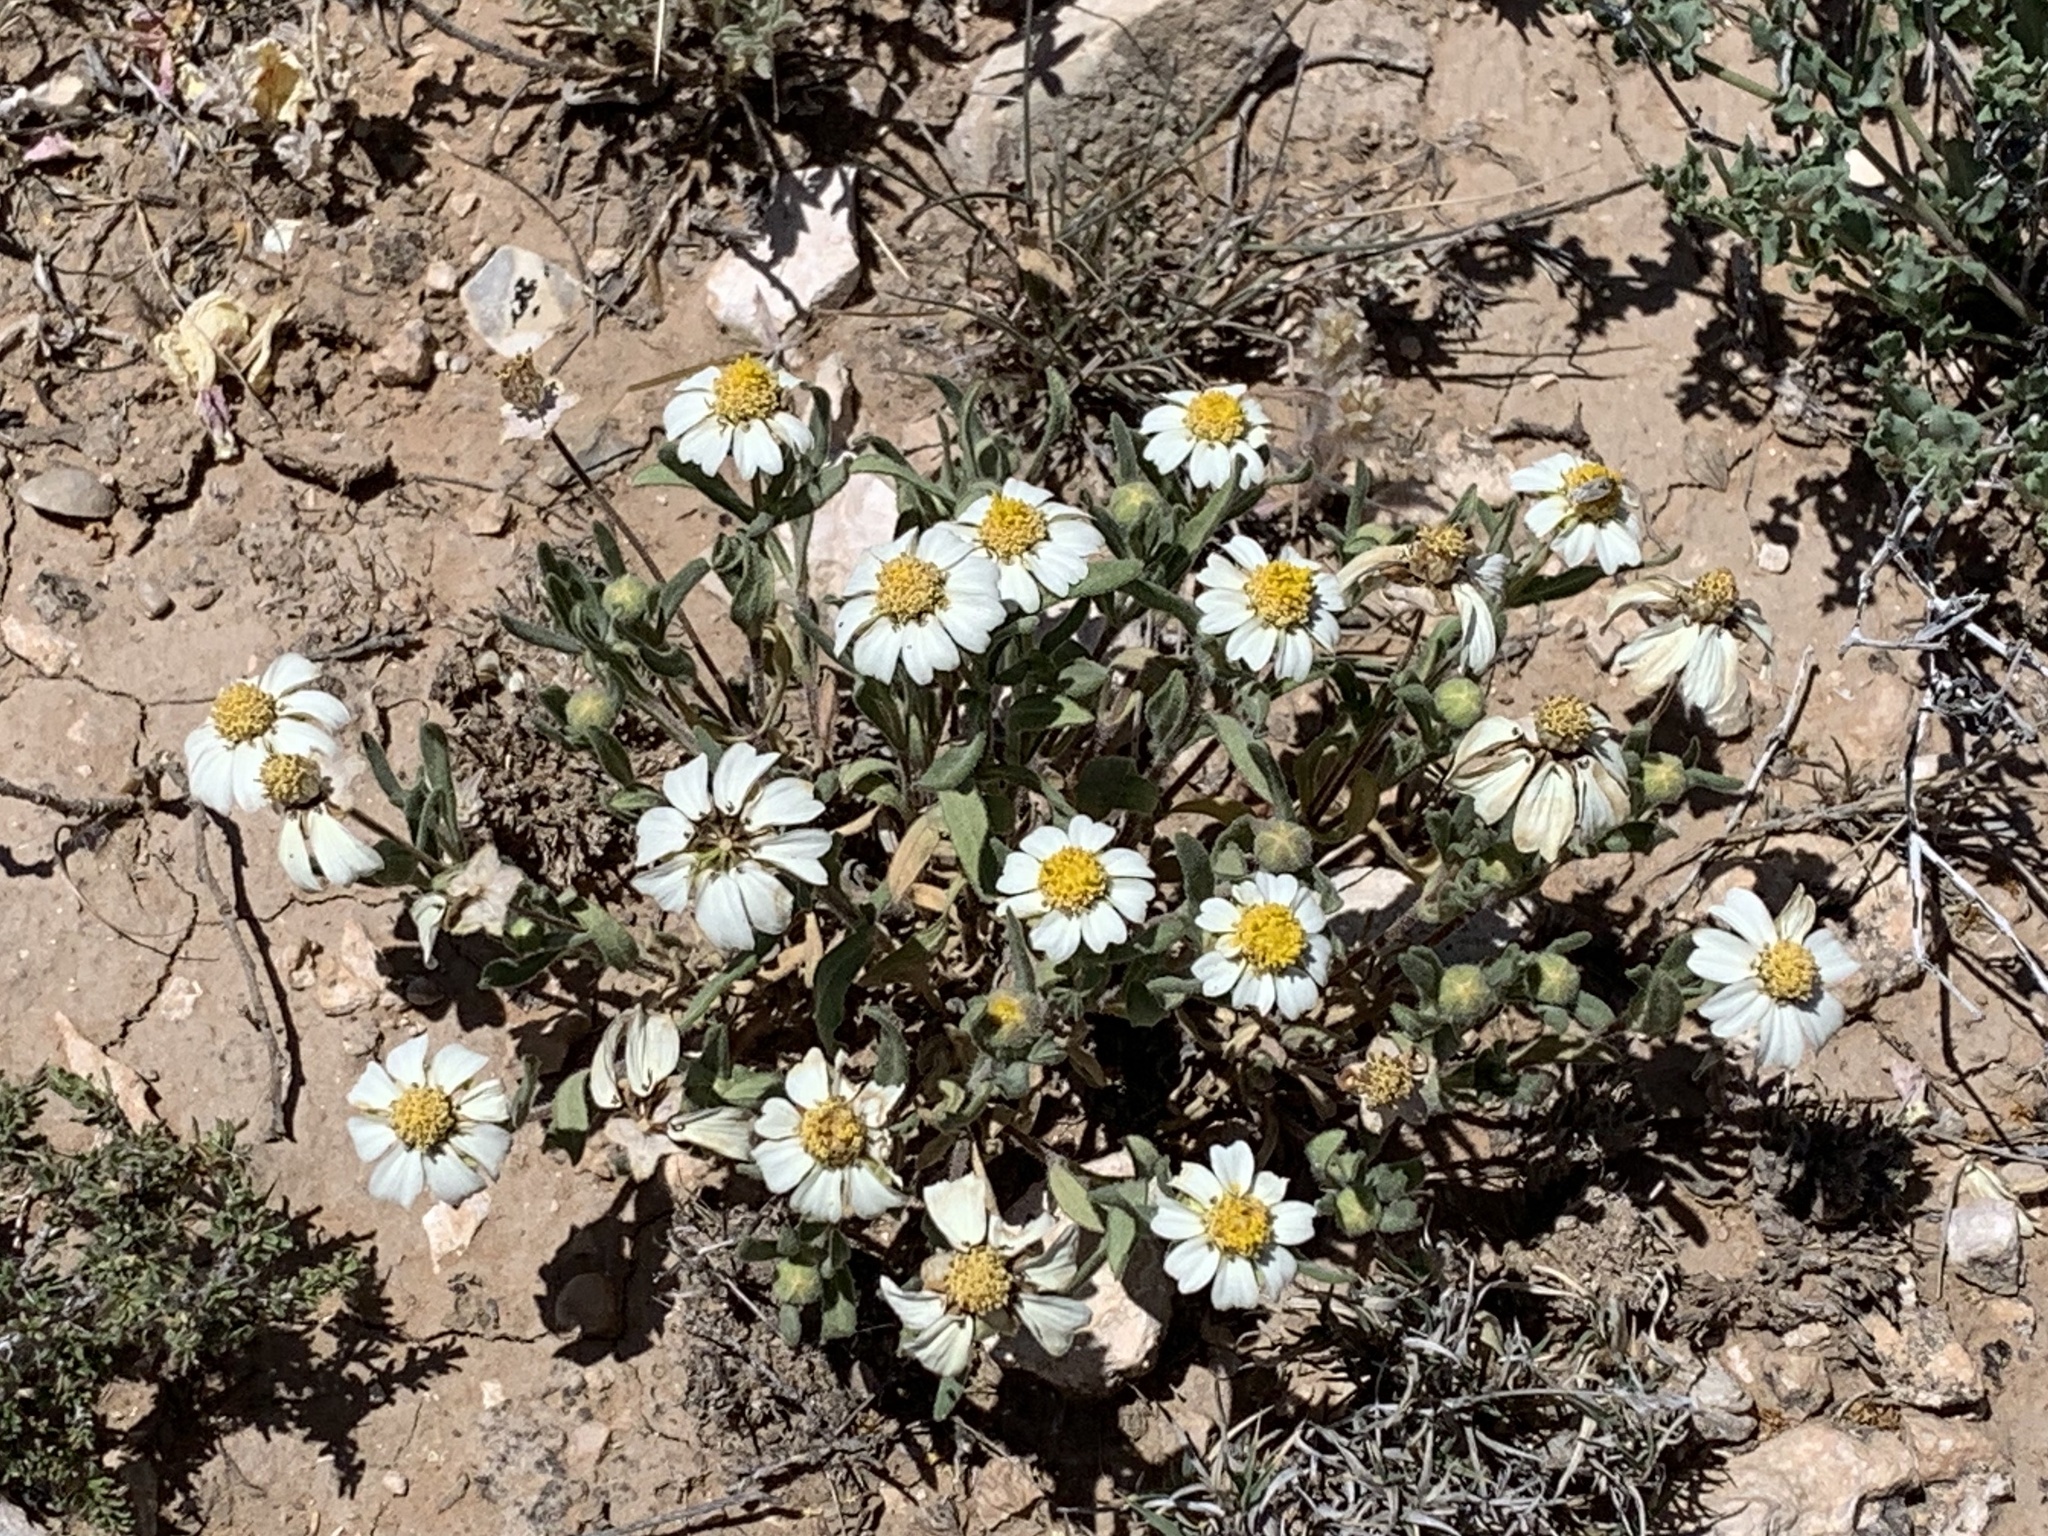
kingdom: Plantae
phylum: Tracheophyta
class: Magnoliopsida
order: Asterales
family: Asteraceae
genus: Melampodium
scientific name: Melampodium leucanthum
